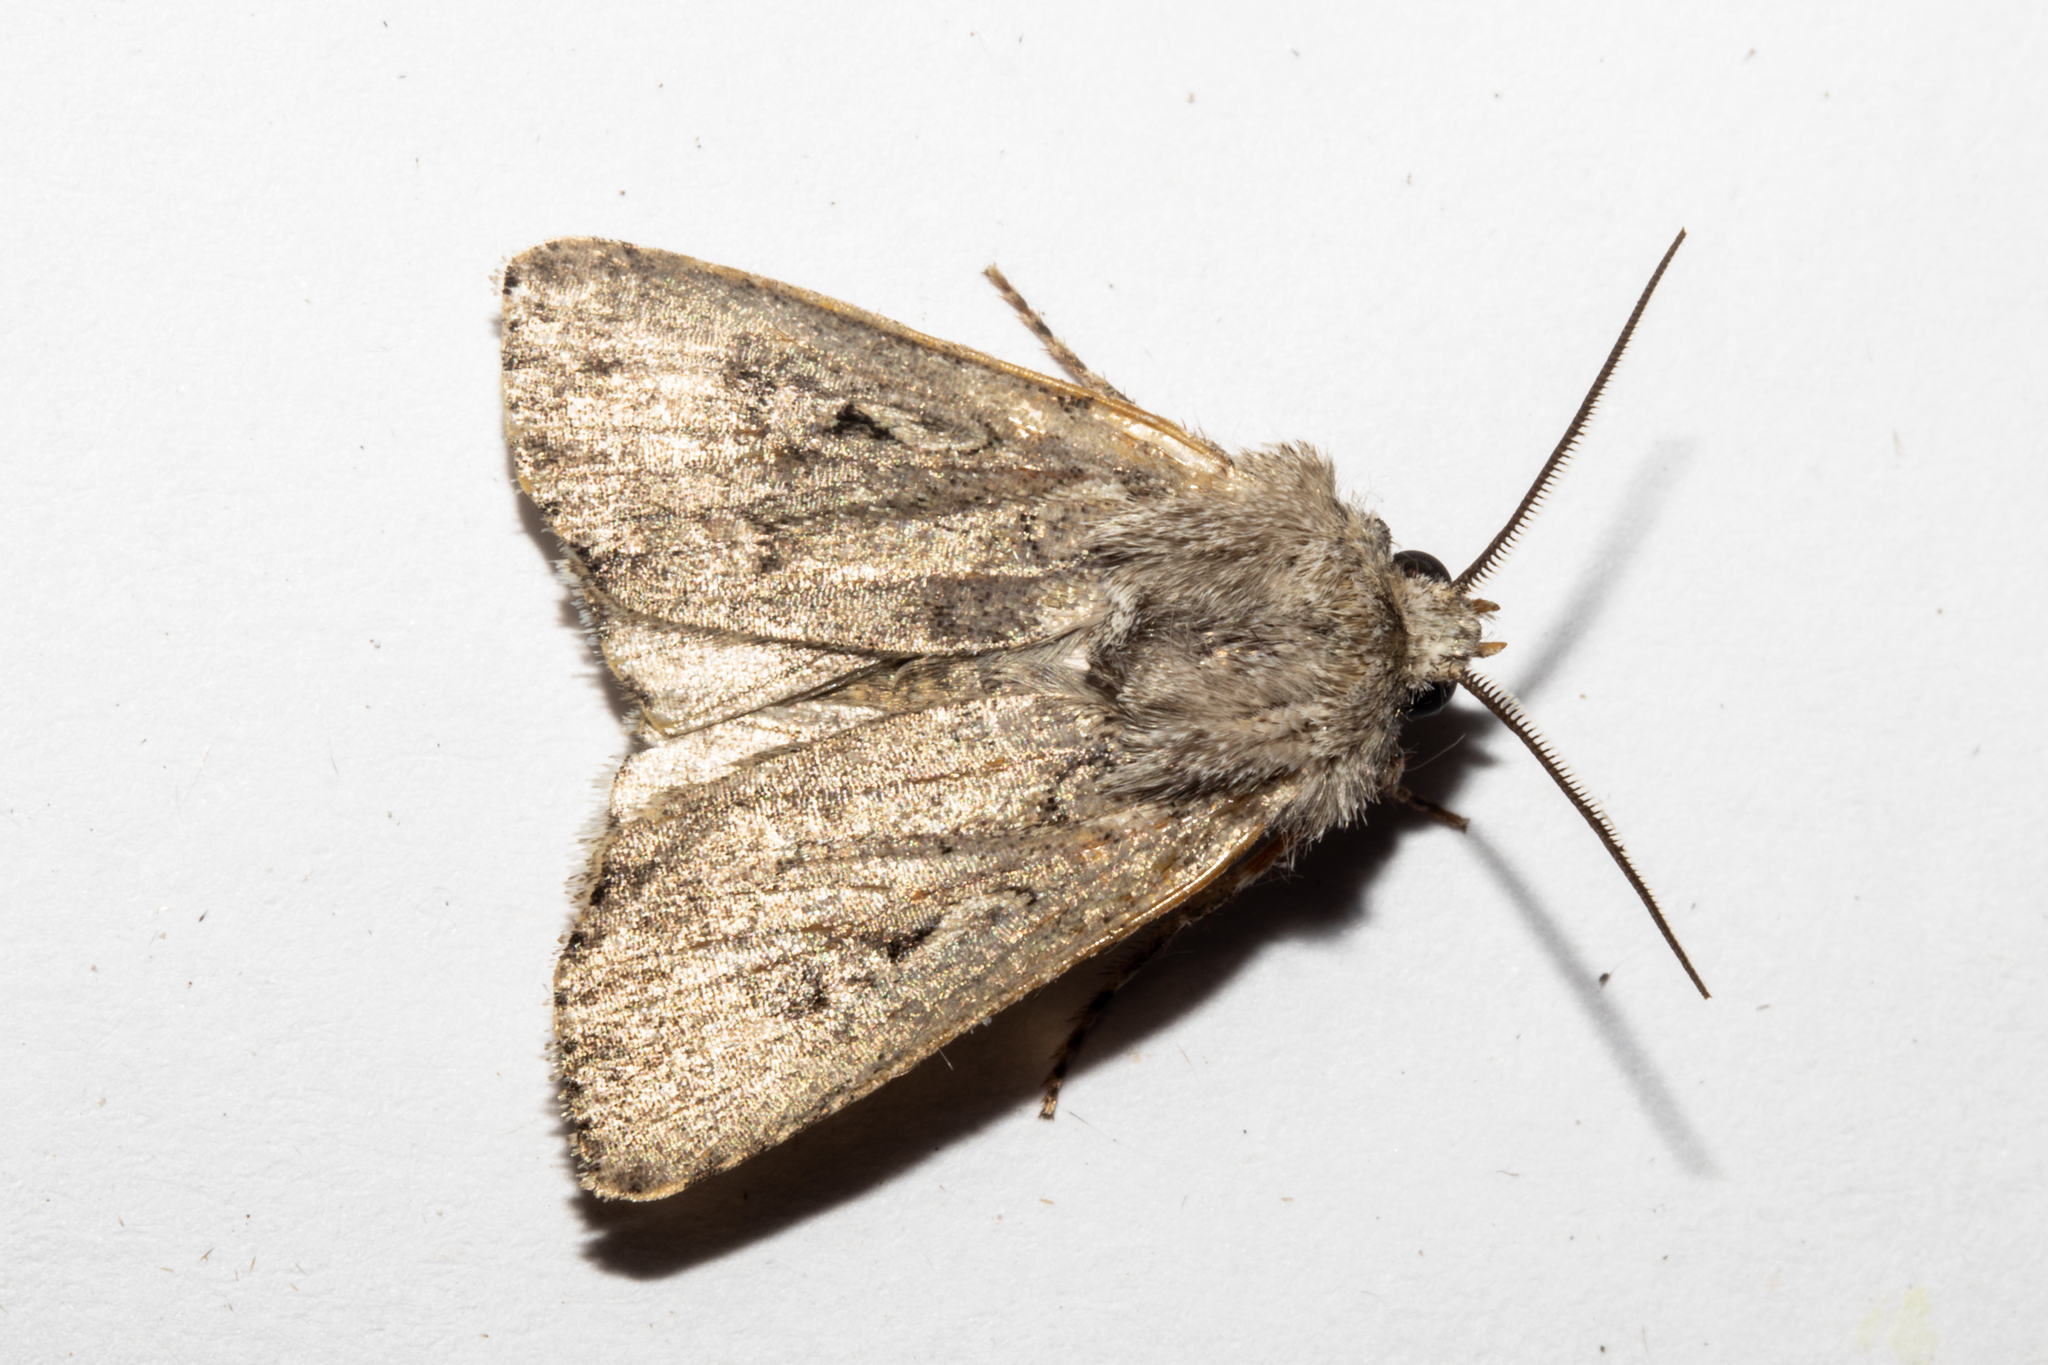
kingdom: Animalia
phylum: Arthropoda
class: Insecta
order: Lepidoptera
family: Noctuidae
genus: Agrotis
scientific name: Agrotis admirationis
